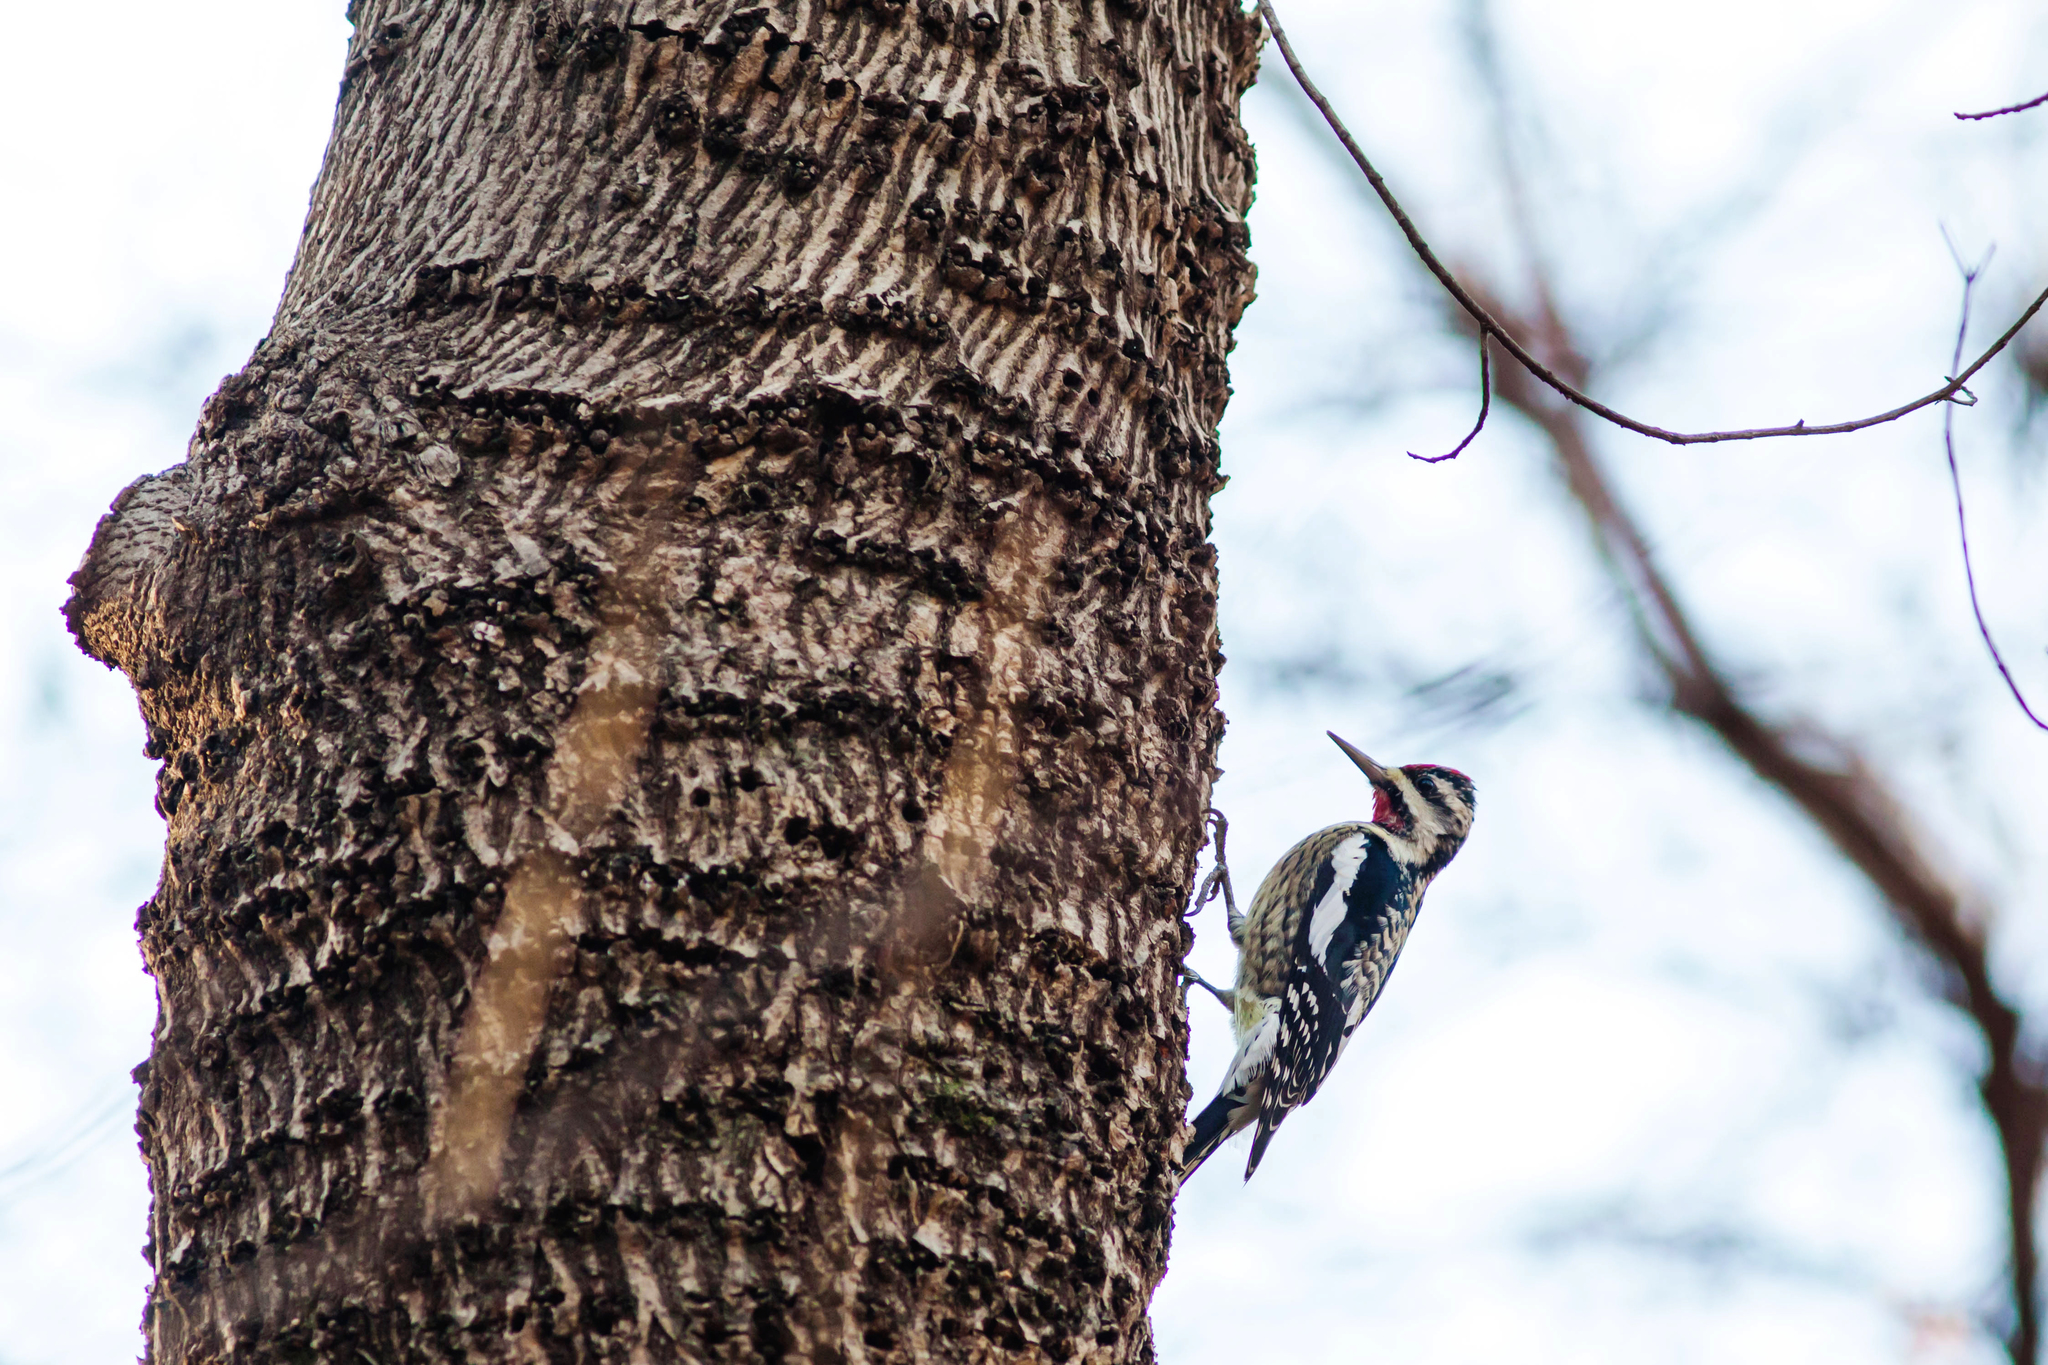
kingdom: Animalia
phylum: Chordata
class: Aves
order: Piciformes
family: Picidae
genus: Sphyrapicus
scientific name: Sphyrapicus varius
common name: Yellow-bellied sapsucker
